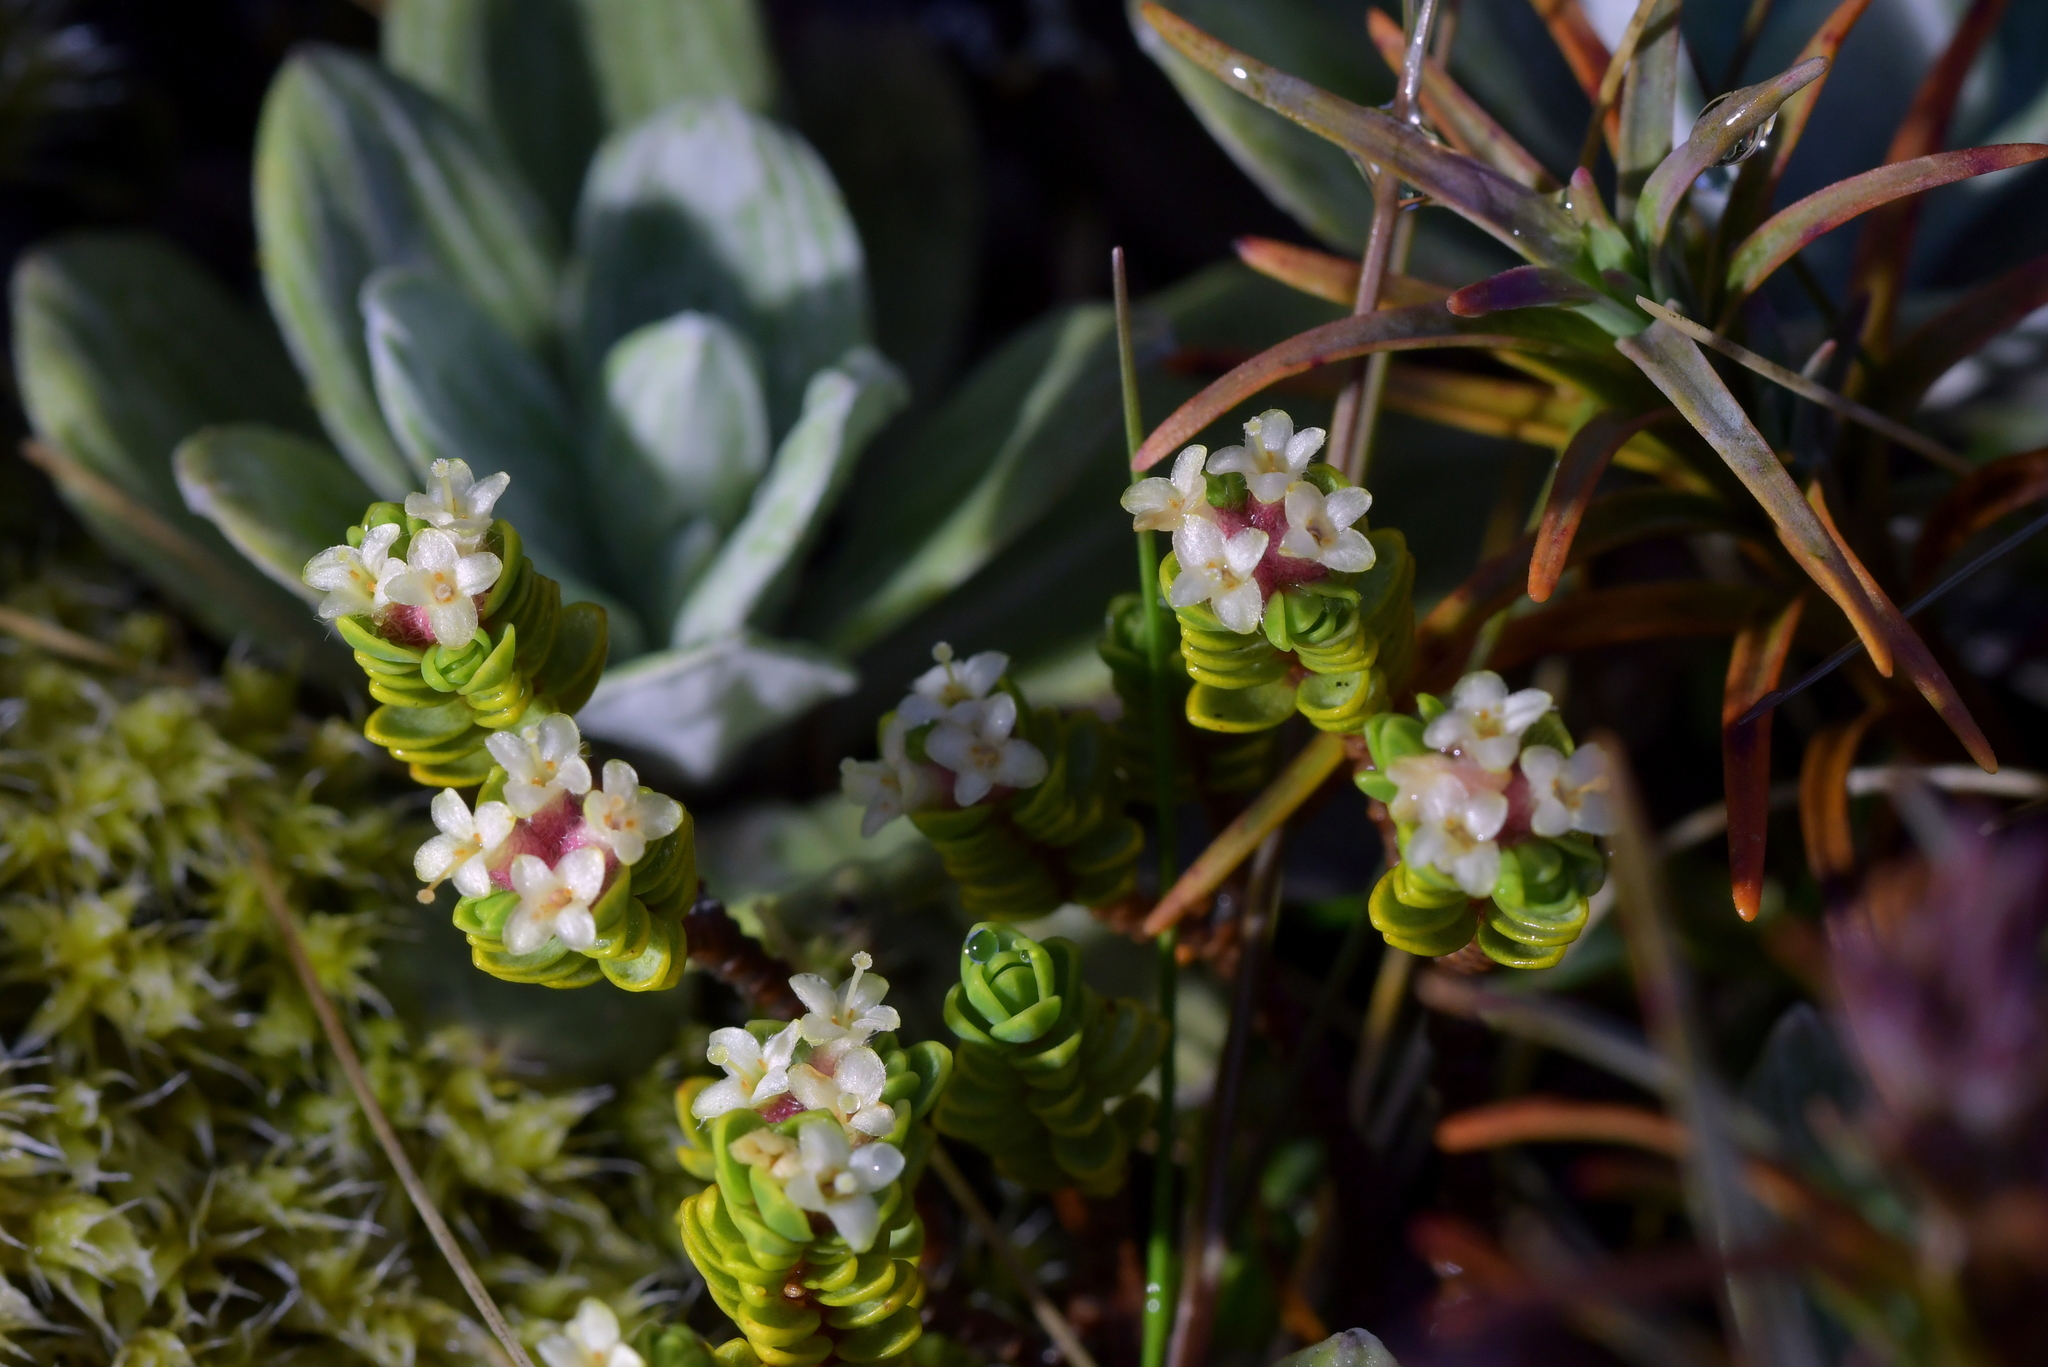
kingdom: Plantae
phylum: Tracheophyta
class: Magnoliopsida
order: Malvales
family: Thymelaeaceae
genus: Pimelea
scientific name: Pimelea microphylla
